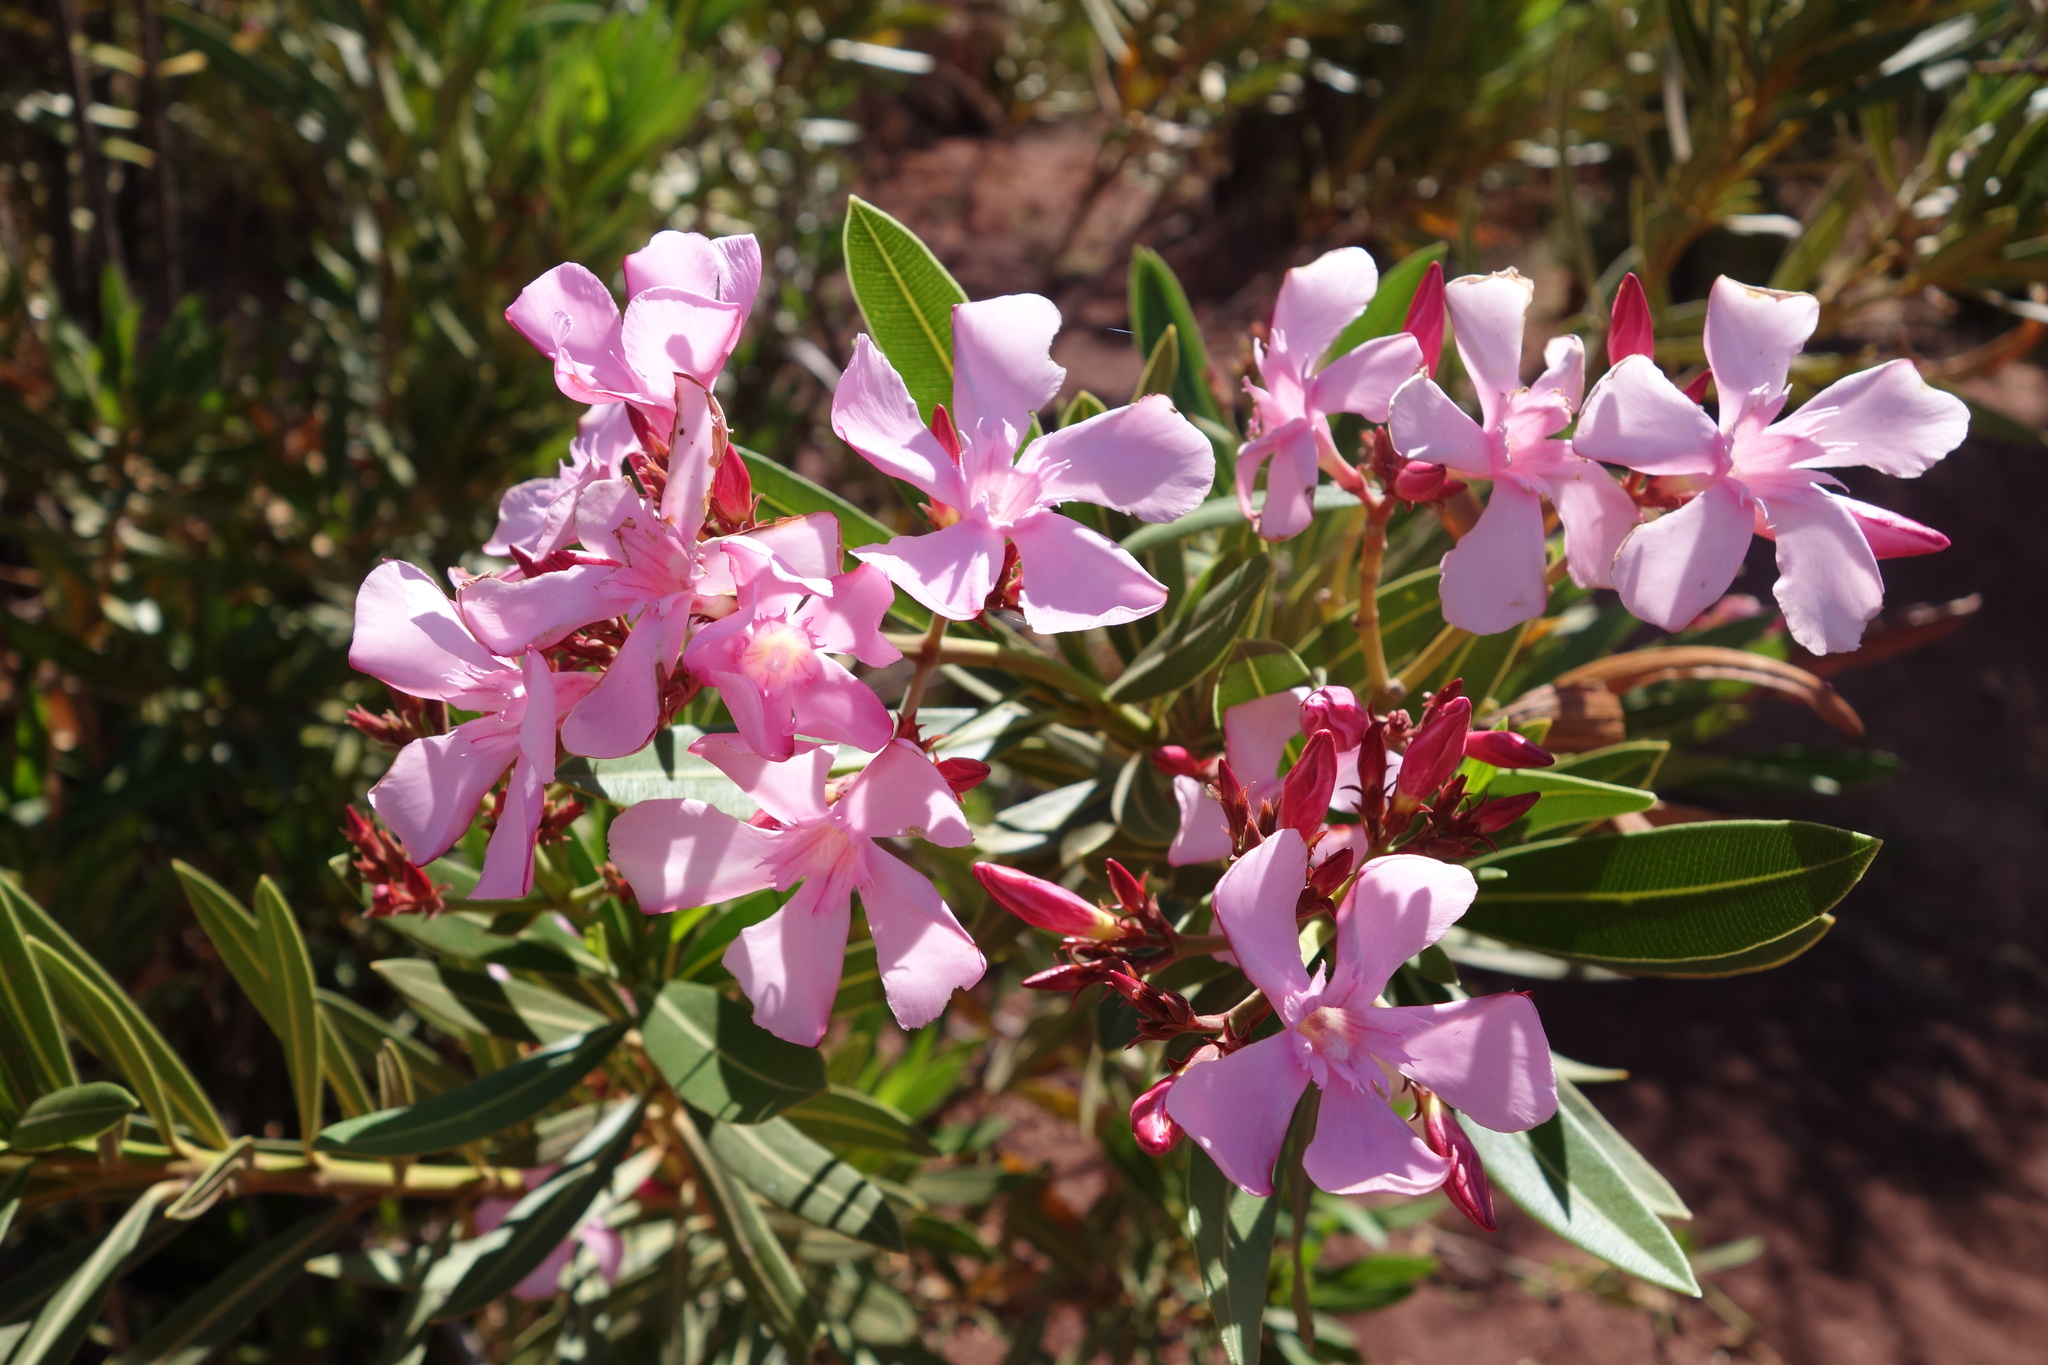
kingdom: Plantae
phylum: Tracheophyta
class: Magnoliopsida
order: Gentianales
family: Apocynaceae
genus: Nerium
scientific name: Nerium oleander
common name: Oleander
